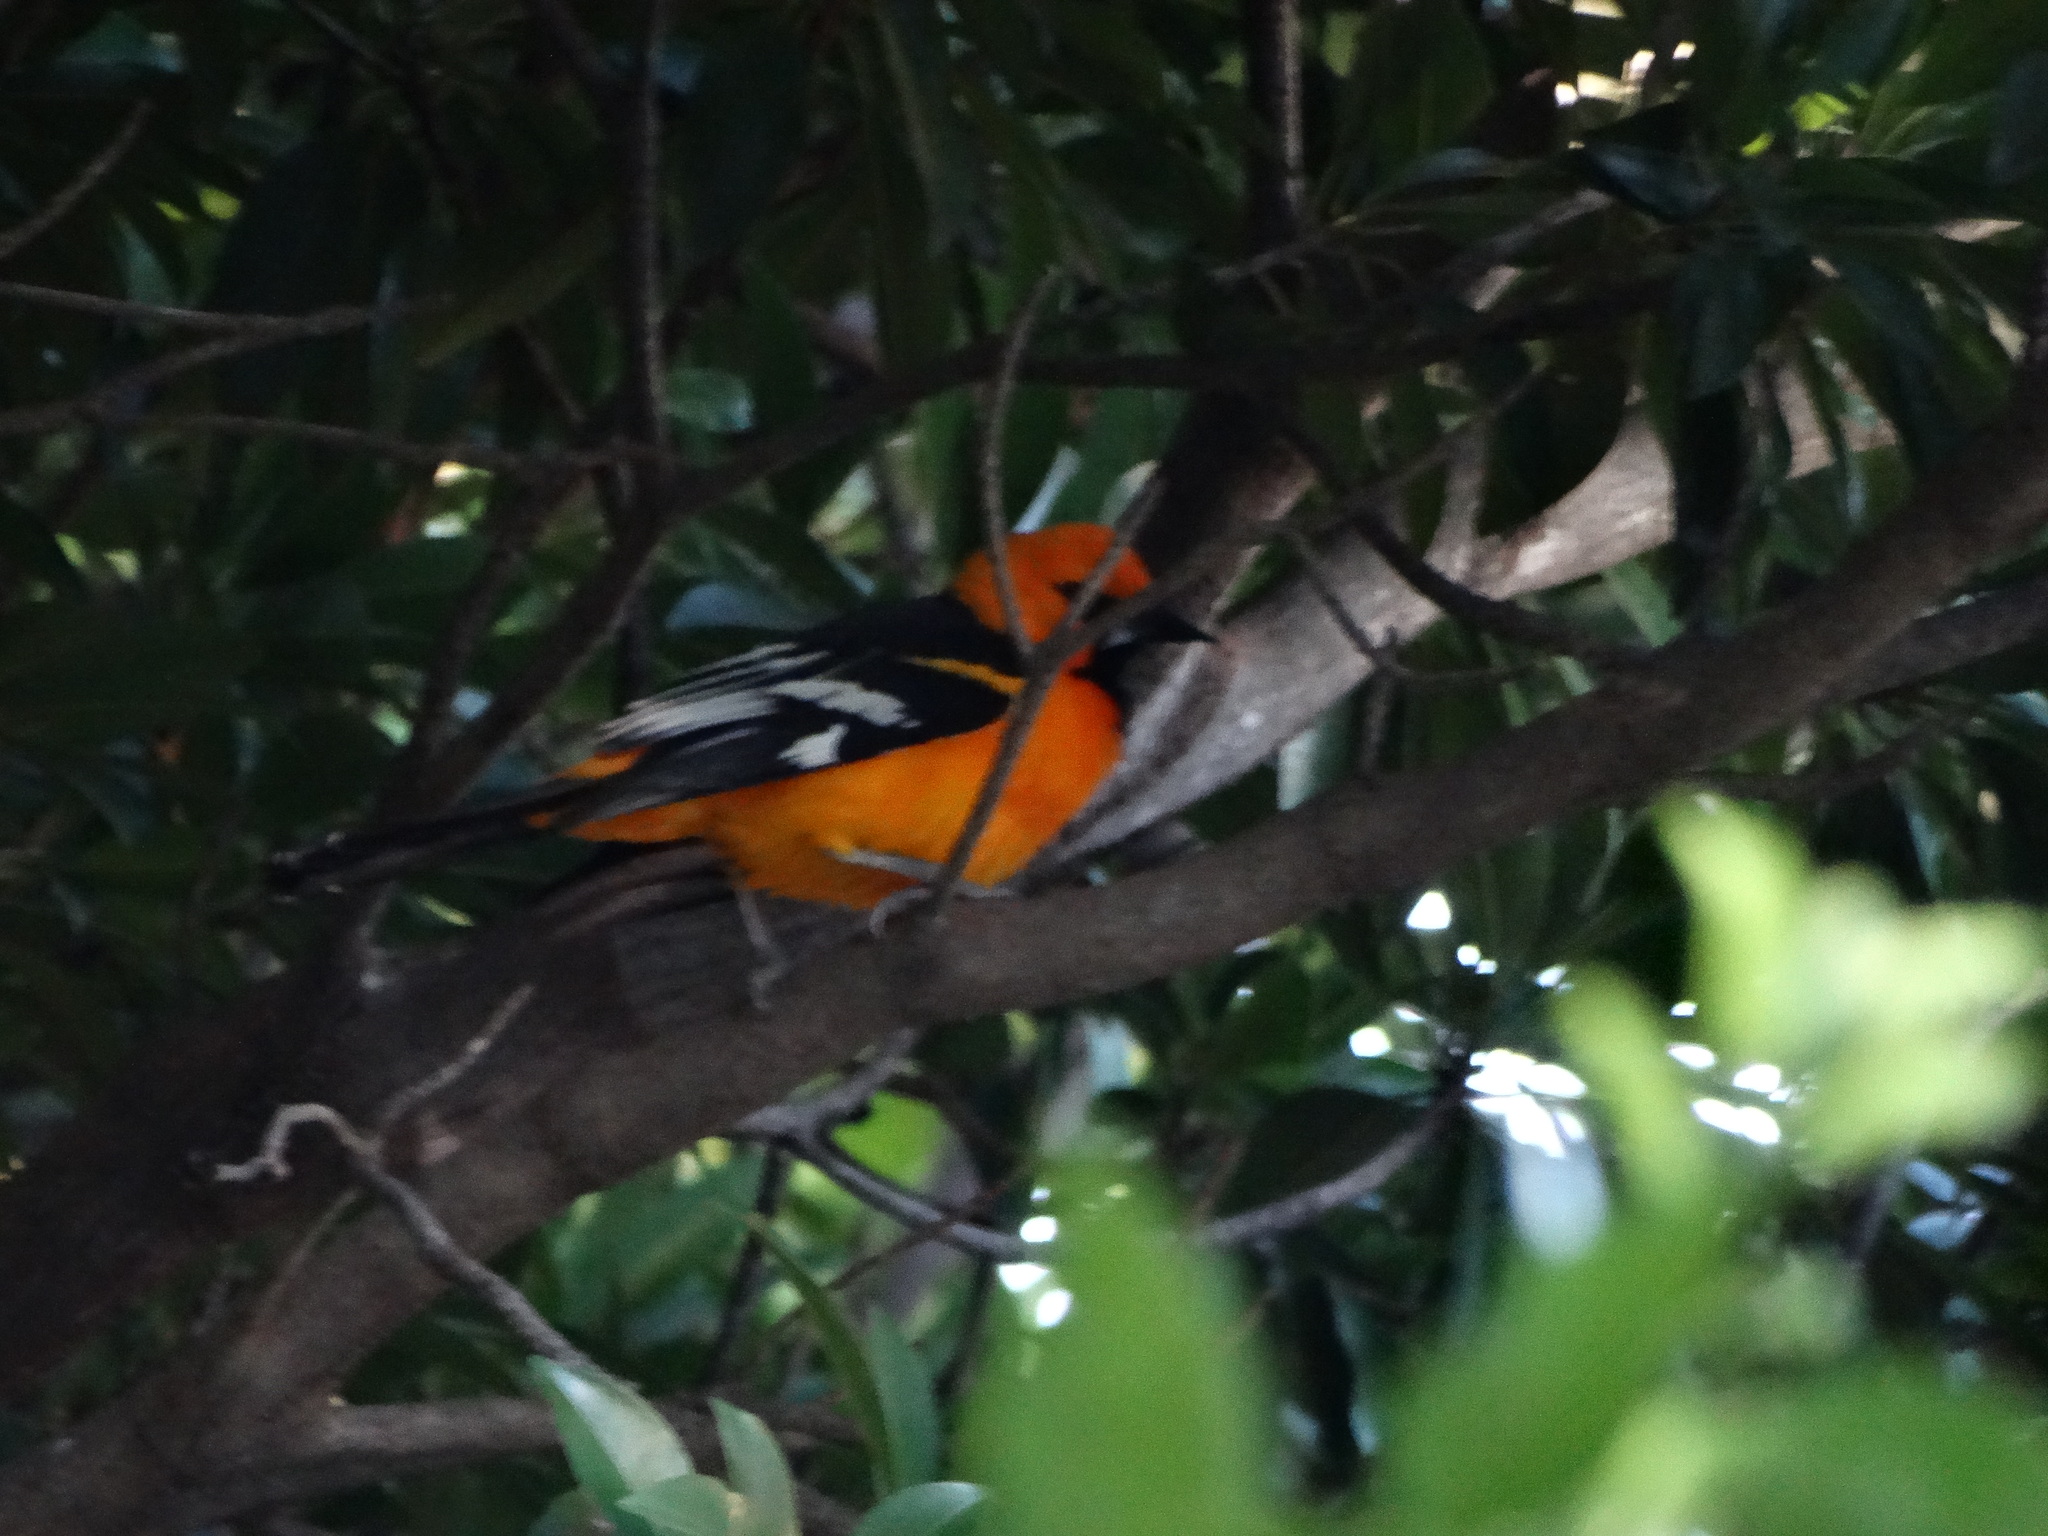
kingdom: Animalia
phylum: Chordata
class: Aves
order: Passeriformes
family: Icteridae
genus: Icterus
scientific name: Icterus gularis
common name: Altamira oriole
